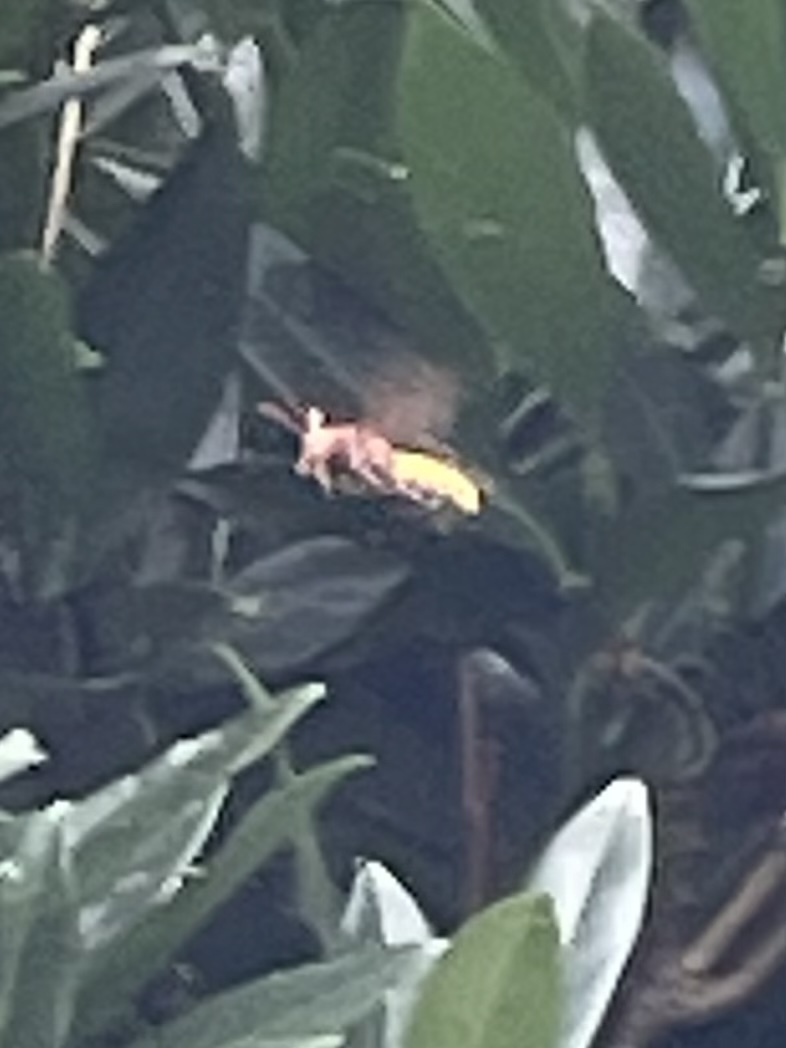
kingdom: Animalia
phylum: Arthropoda
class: Insecta
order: Hymenoptera
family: Vespidae
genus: Vespa
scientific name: Vespa crabro
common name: Hornet
